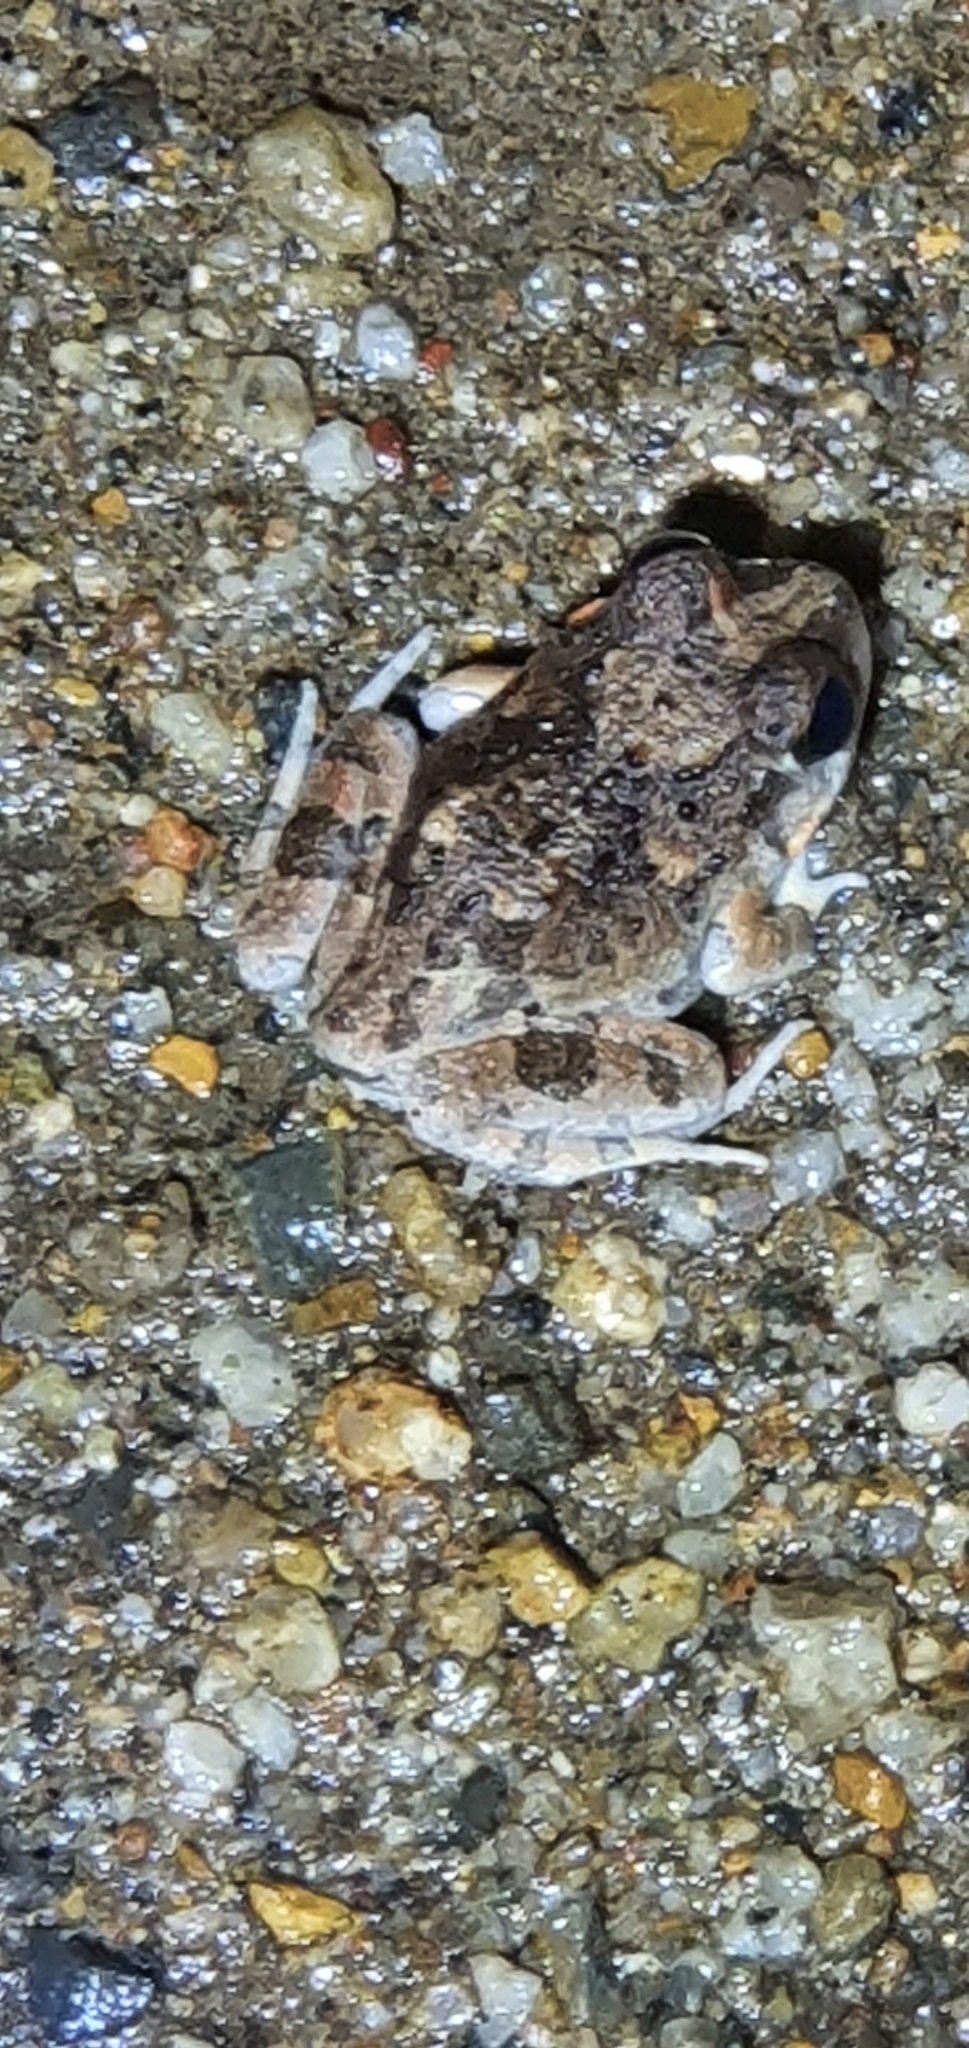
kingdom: Animalia
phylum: Chordata
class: Amphibia
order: Anura
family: Limnodynastidae
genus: Platyplectrum
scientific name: Platyplectrum ornatum
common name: Ornate burrowing frog
